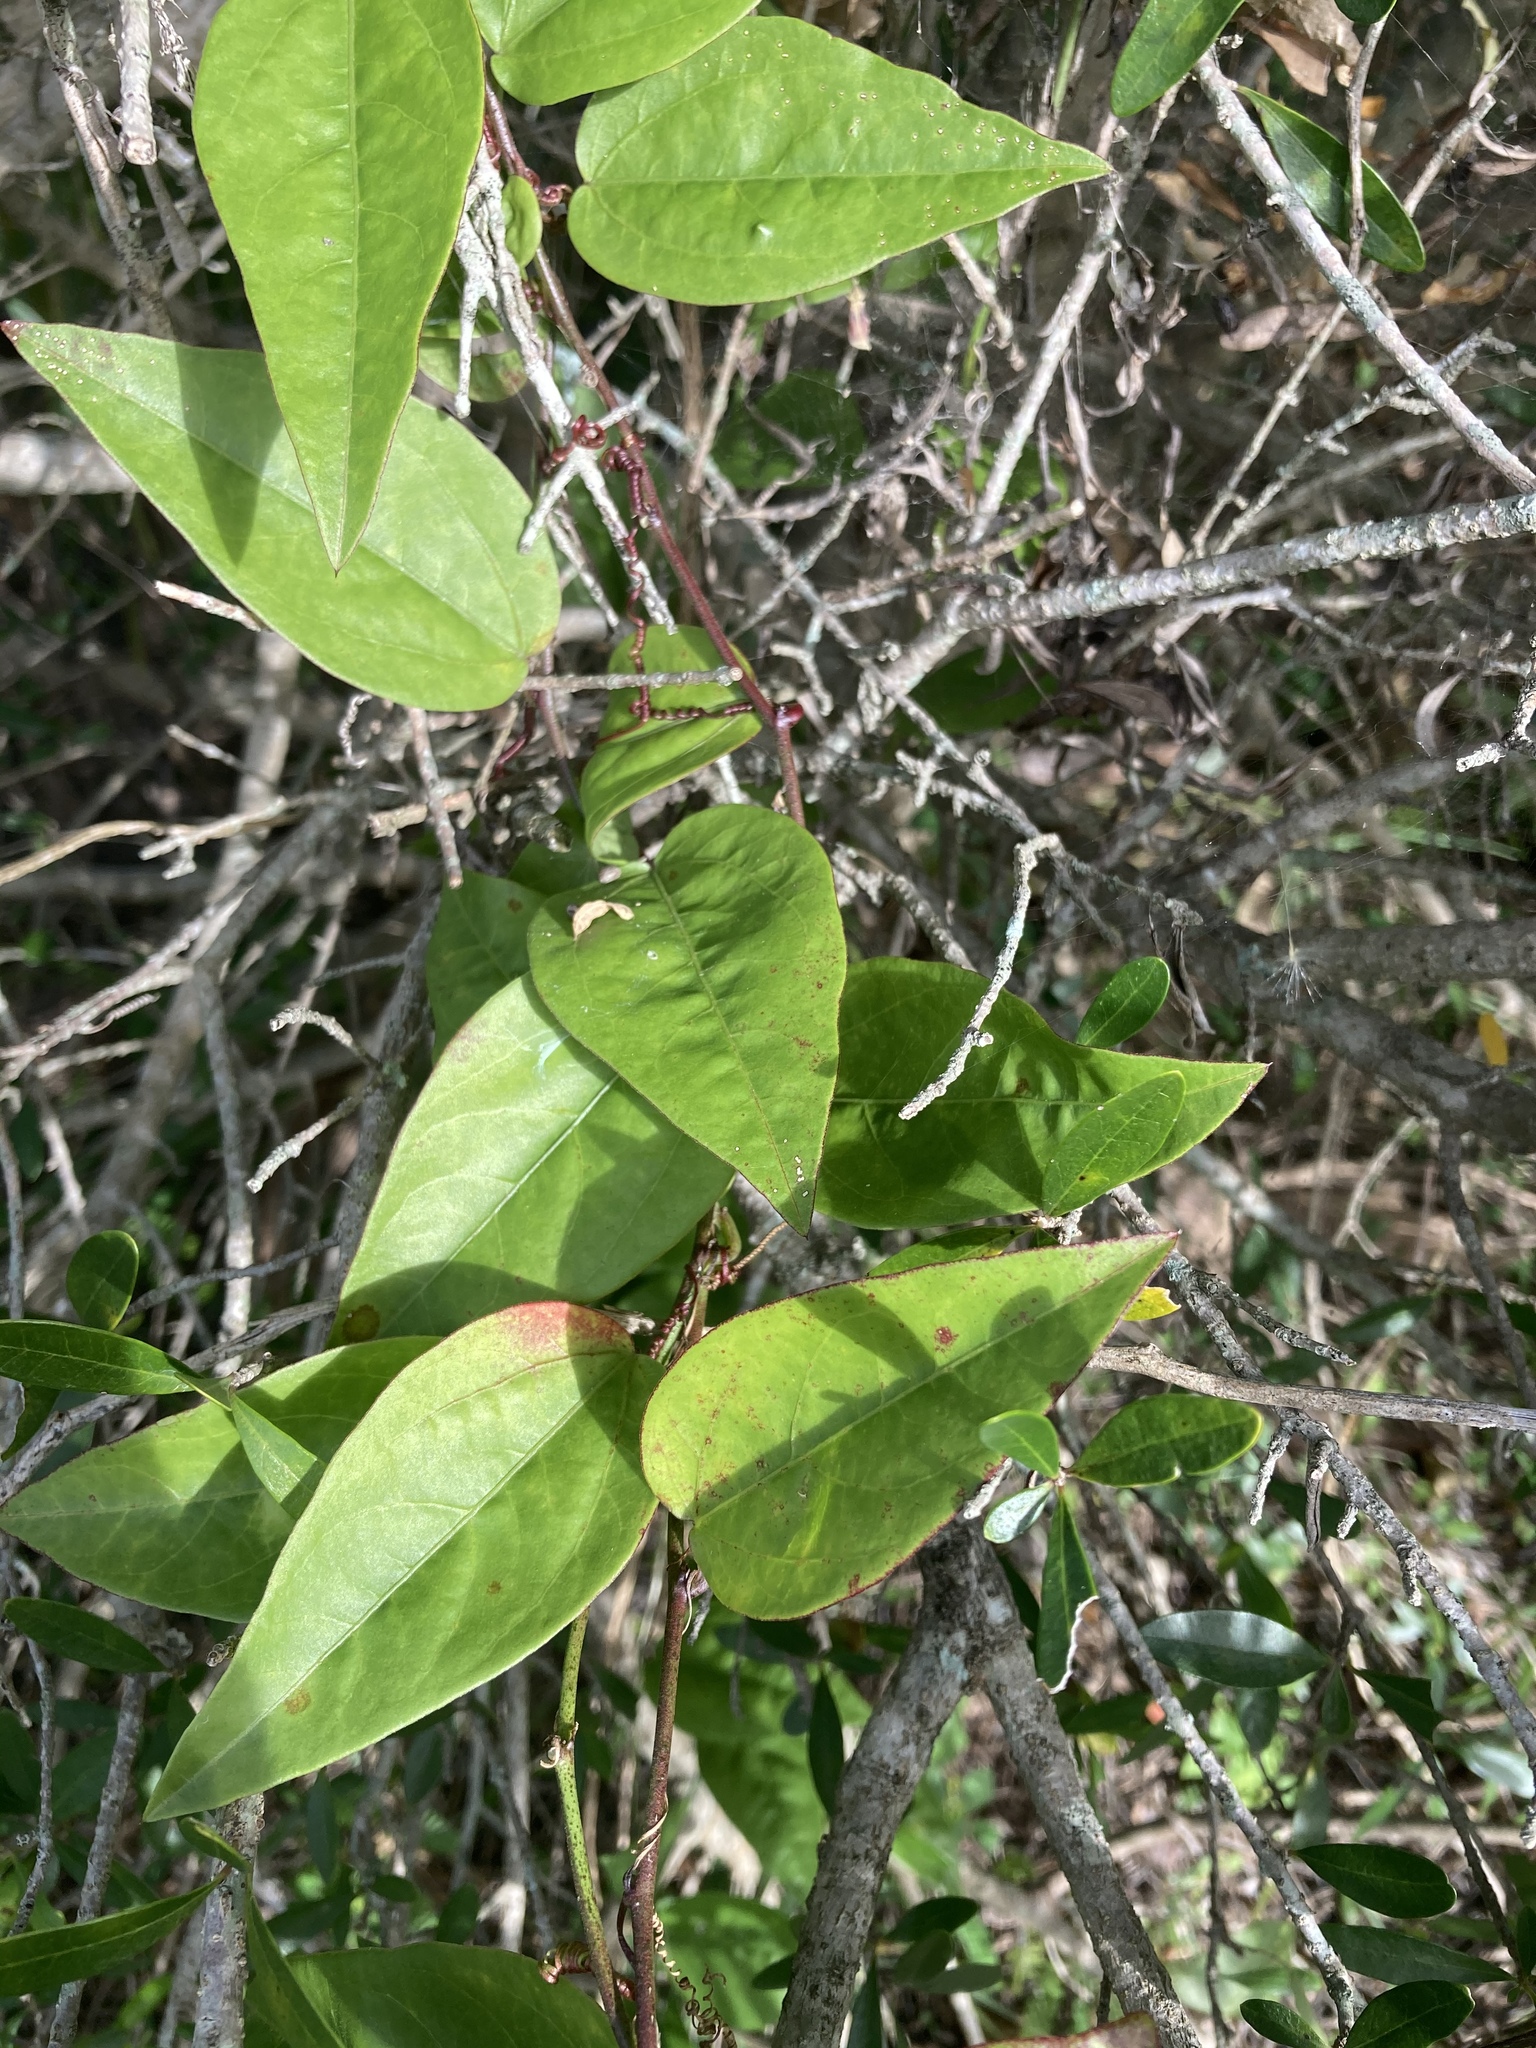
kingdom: Plantae
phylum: Tracheophyta
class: Magnoliopsida
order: Malpighiales
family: Passifloraceae
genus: Passiflora
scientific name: Passiflora pallida
